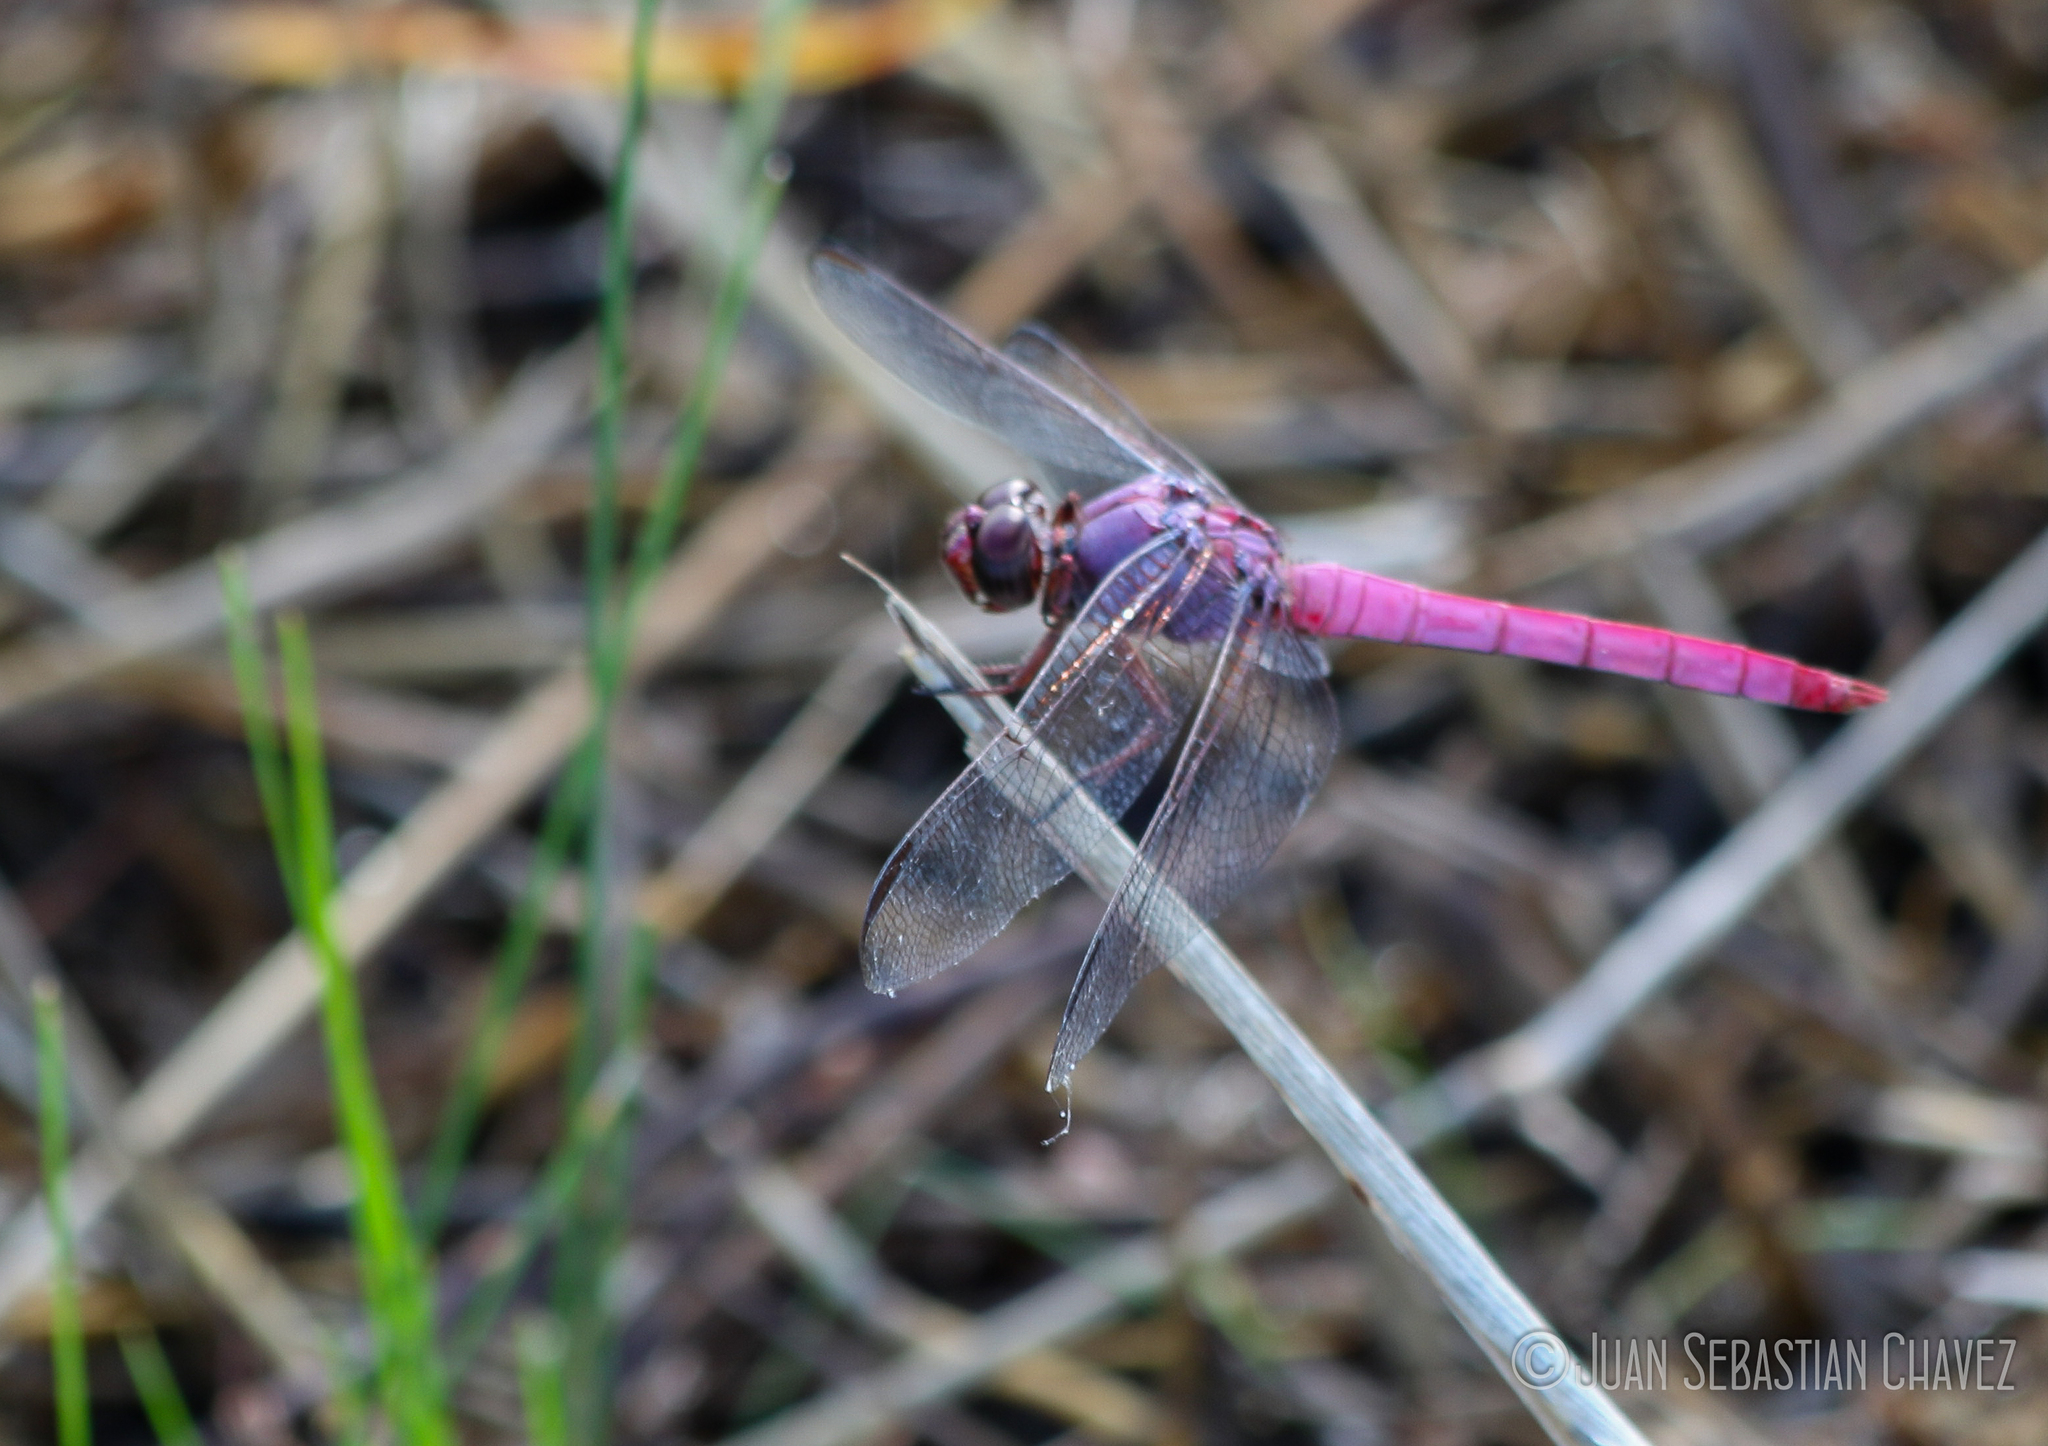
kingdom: Animalia
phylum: Arthropoda
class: Insecta
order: Odonata
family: Libellulidae
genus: Orthemis
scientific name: Orthemis ferruginea
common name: Roseate skimmer
